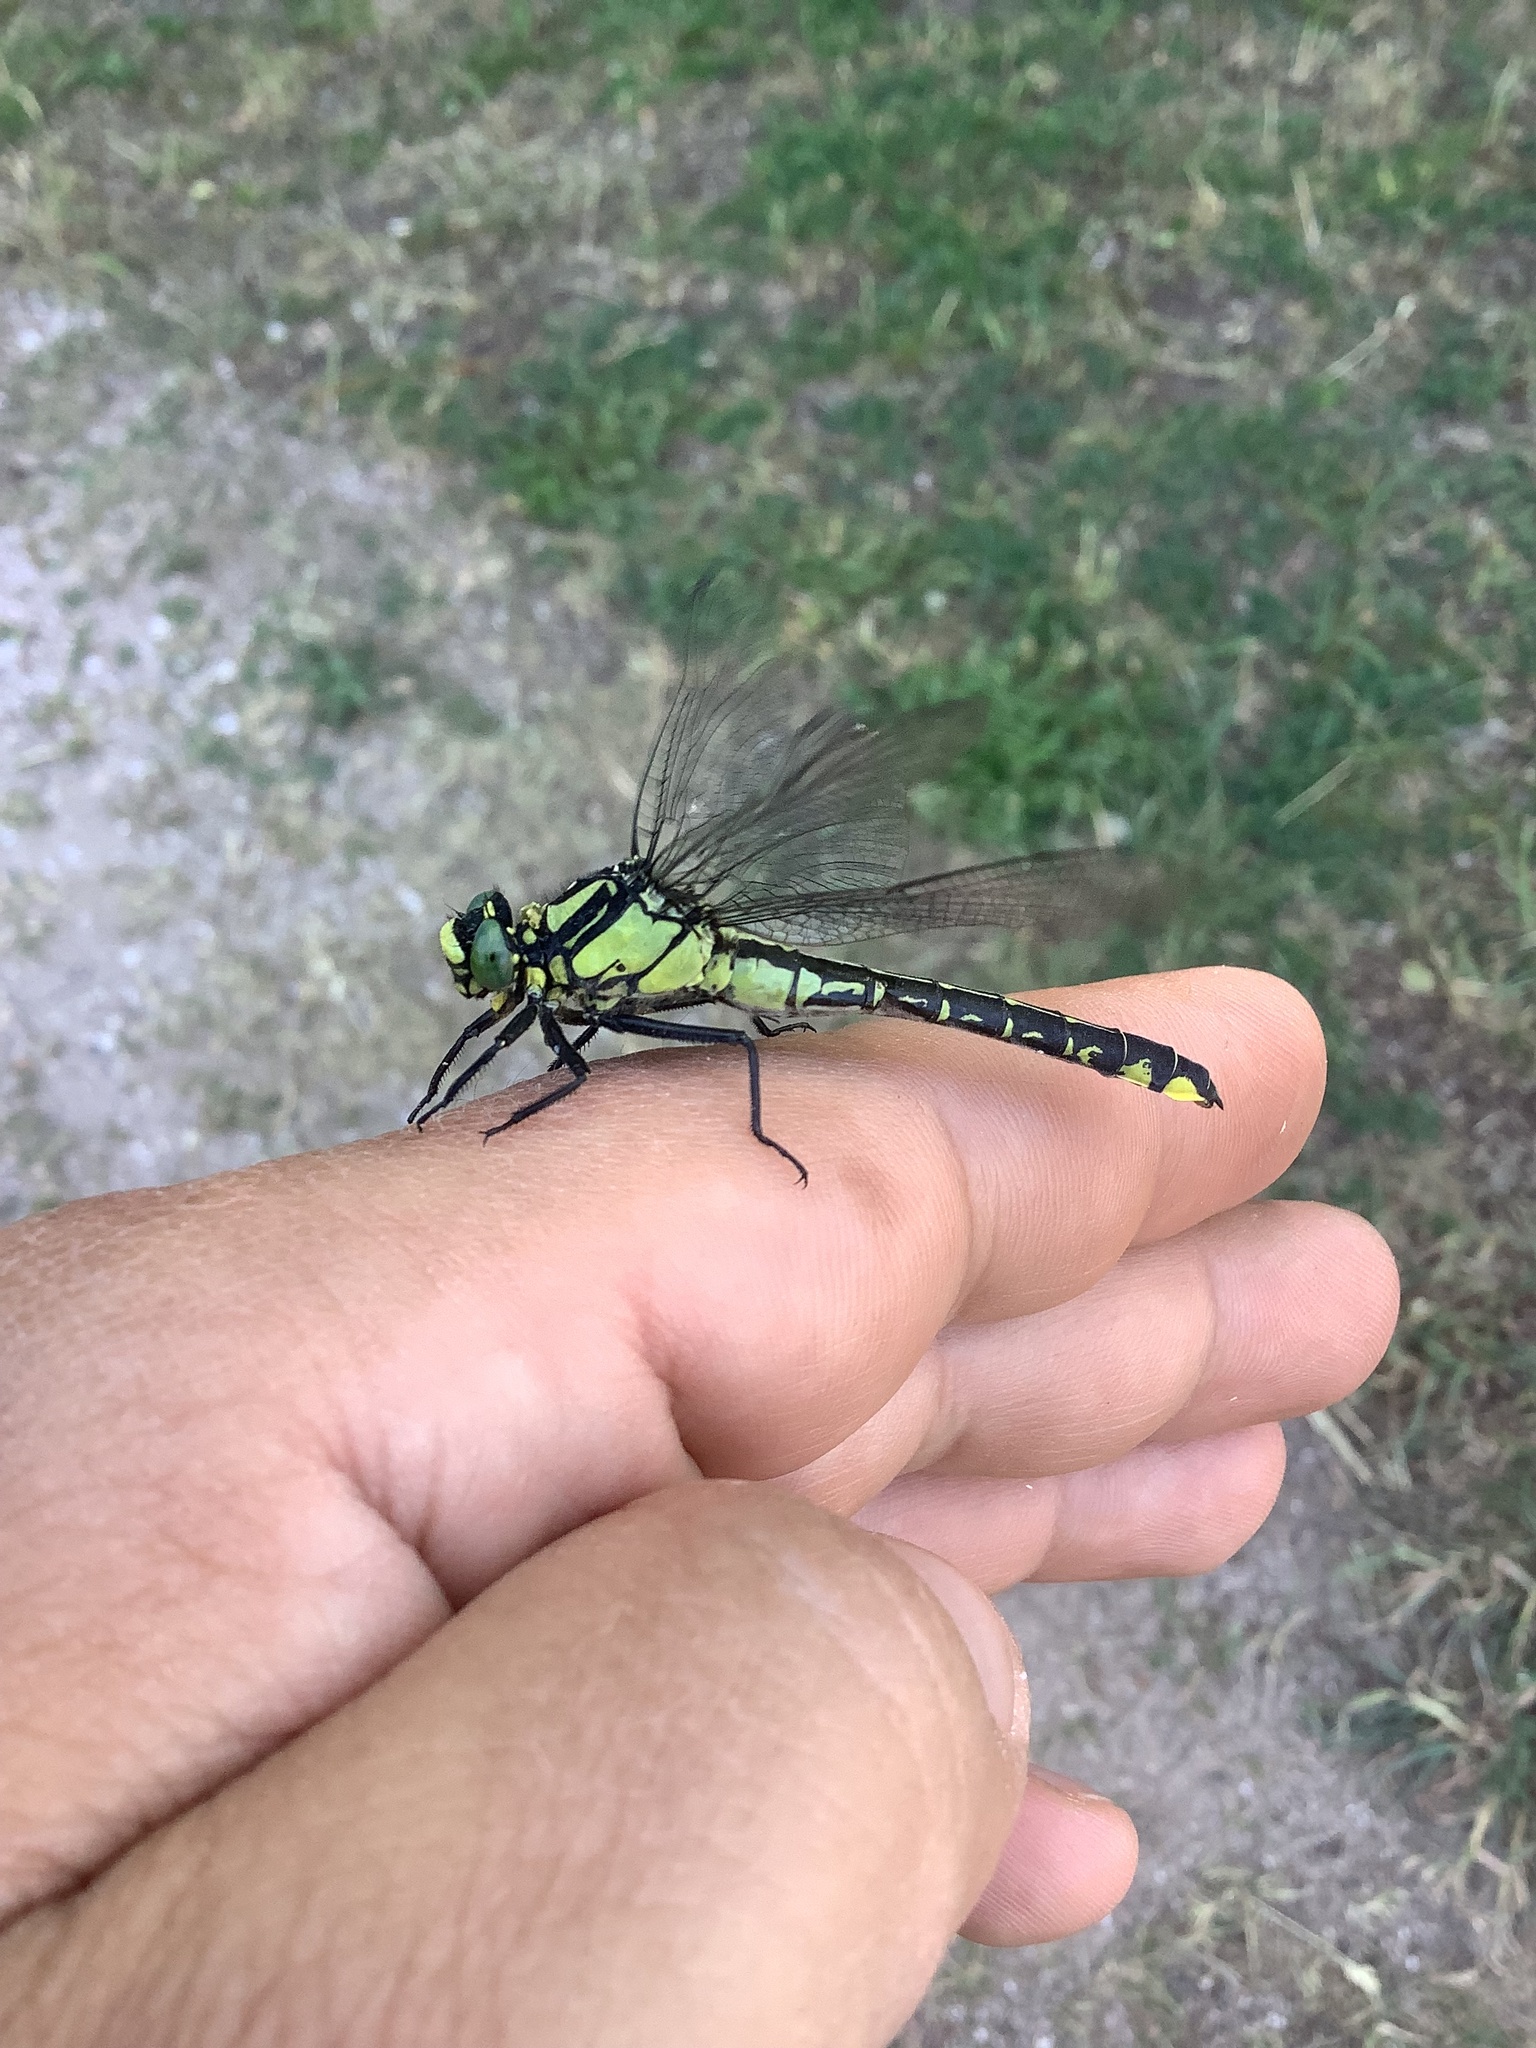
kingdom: Animalia
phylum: Arthropoda
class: Insecta
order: Odonata
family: Gomphidae
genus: Gomphus
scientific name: Gomphus vulgatissimus
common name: Club-tailed dragonfly
